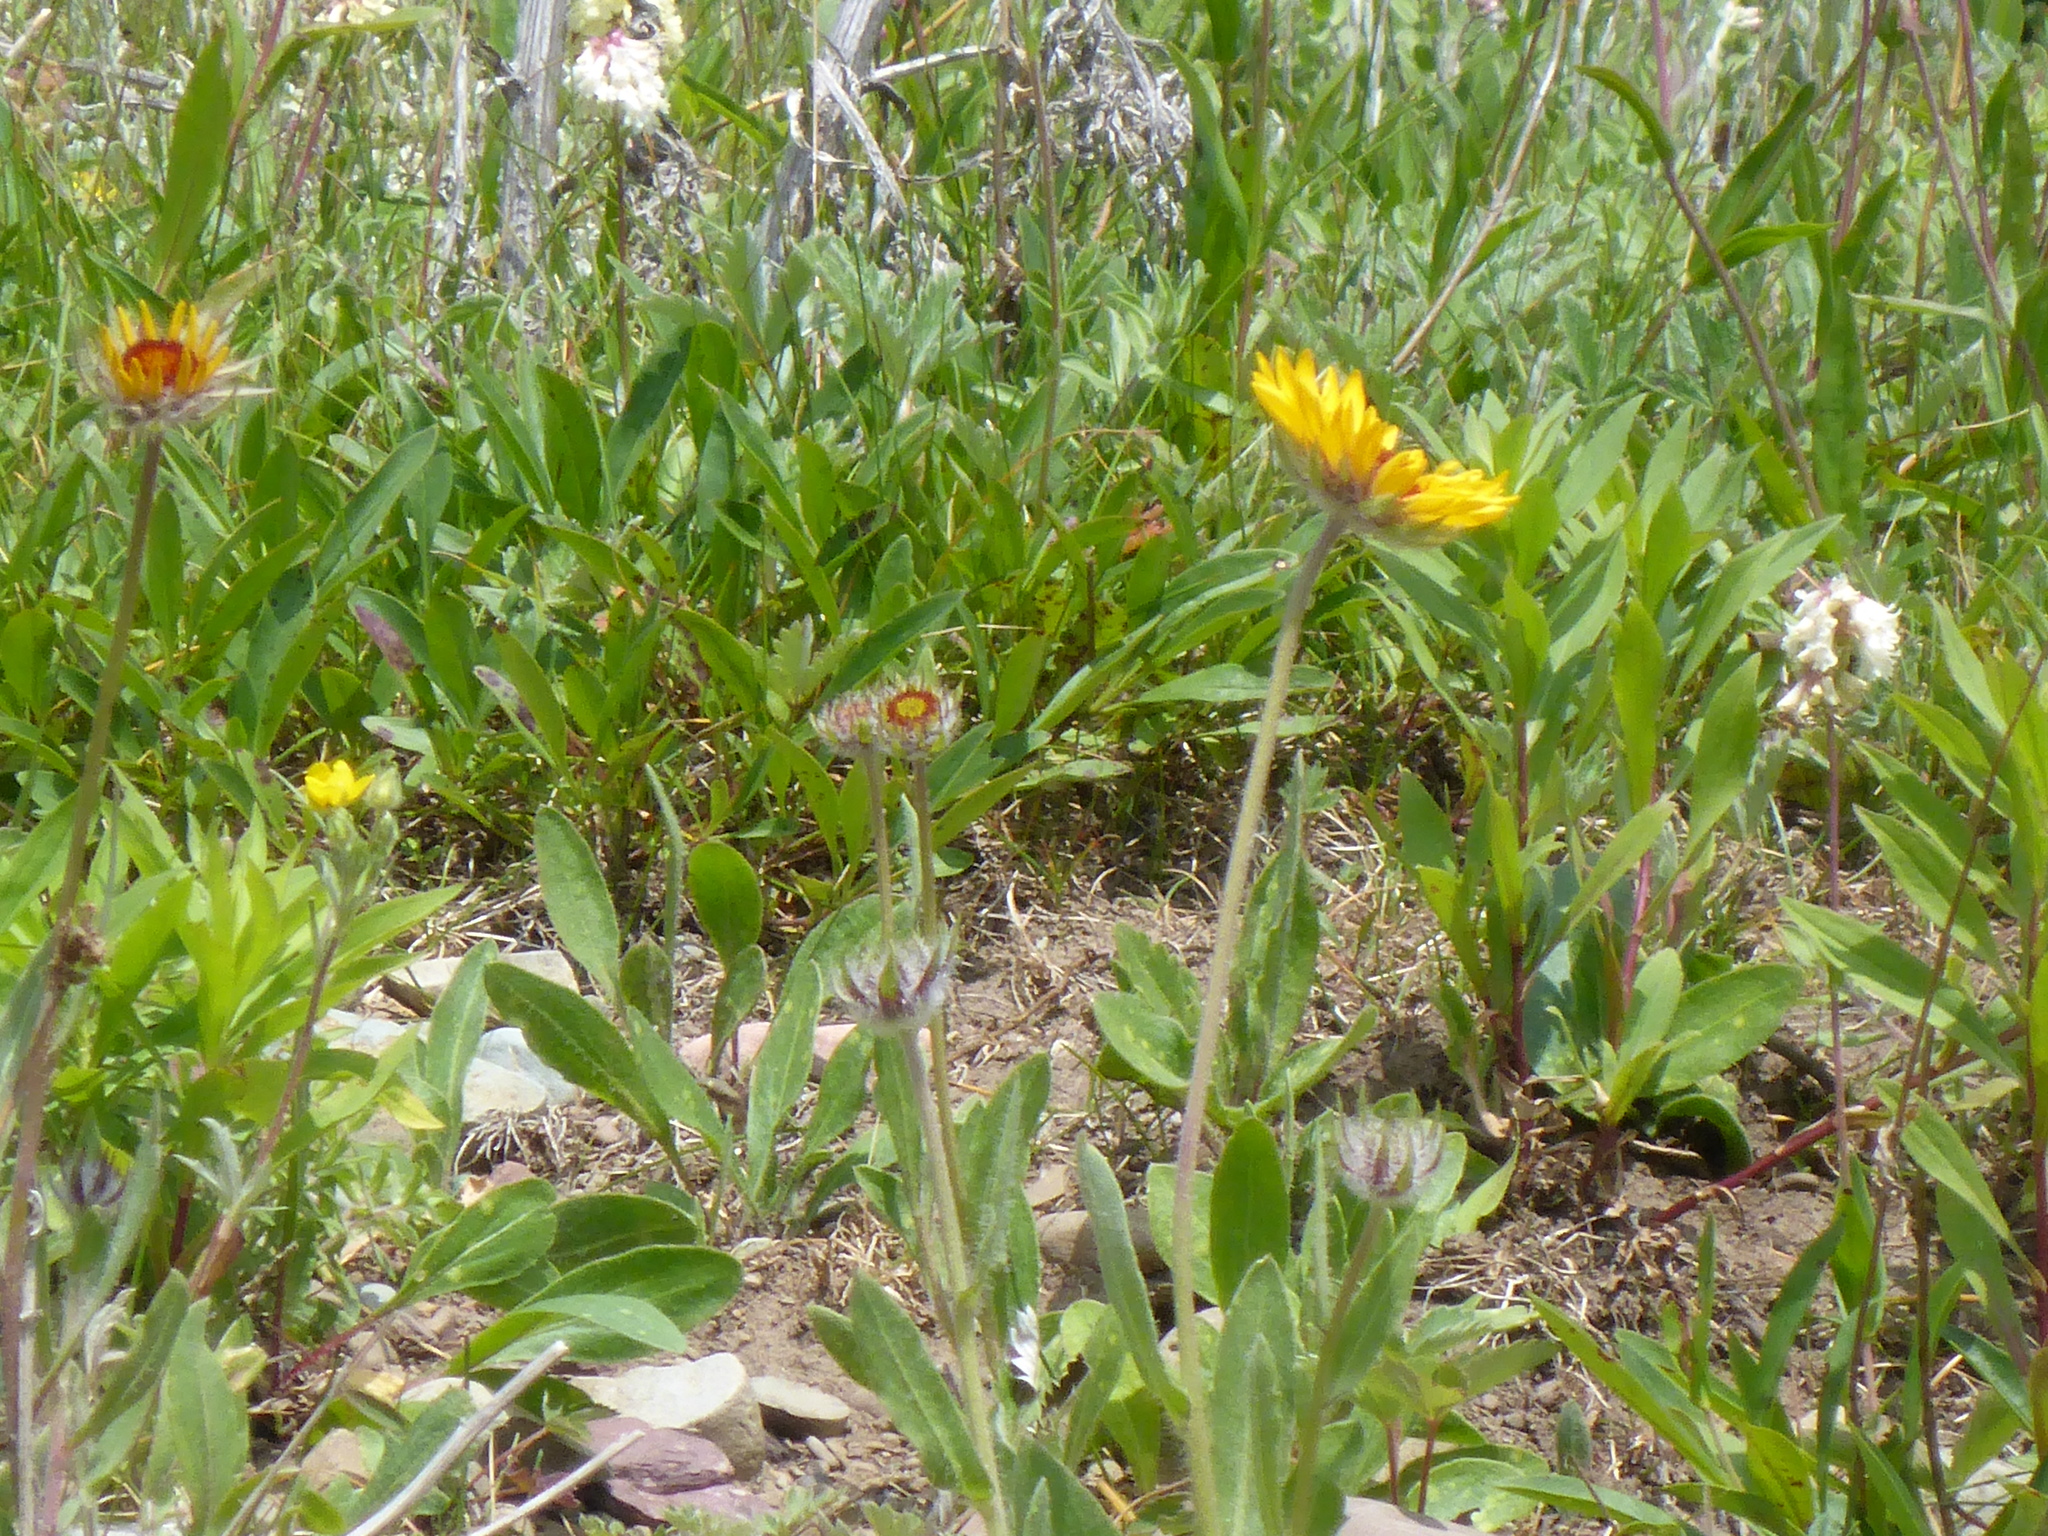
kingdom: Plantae
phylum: Tracheophyta
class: Magnoliopsida
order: Asterales
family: Asteraceae
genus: Gaillardia
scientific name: Gaillardia aristata
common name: Blanket-flower
